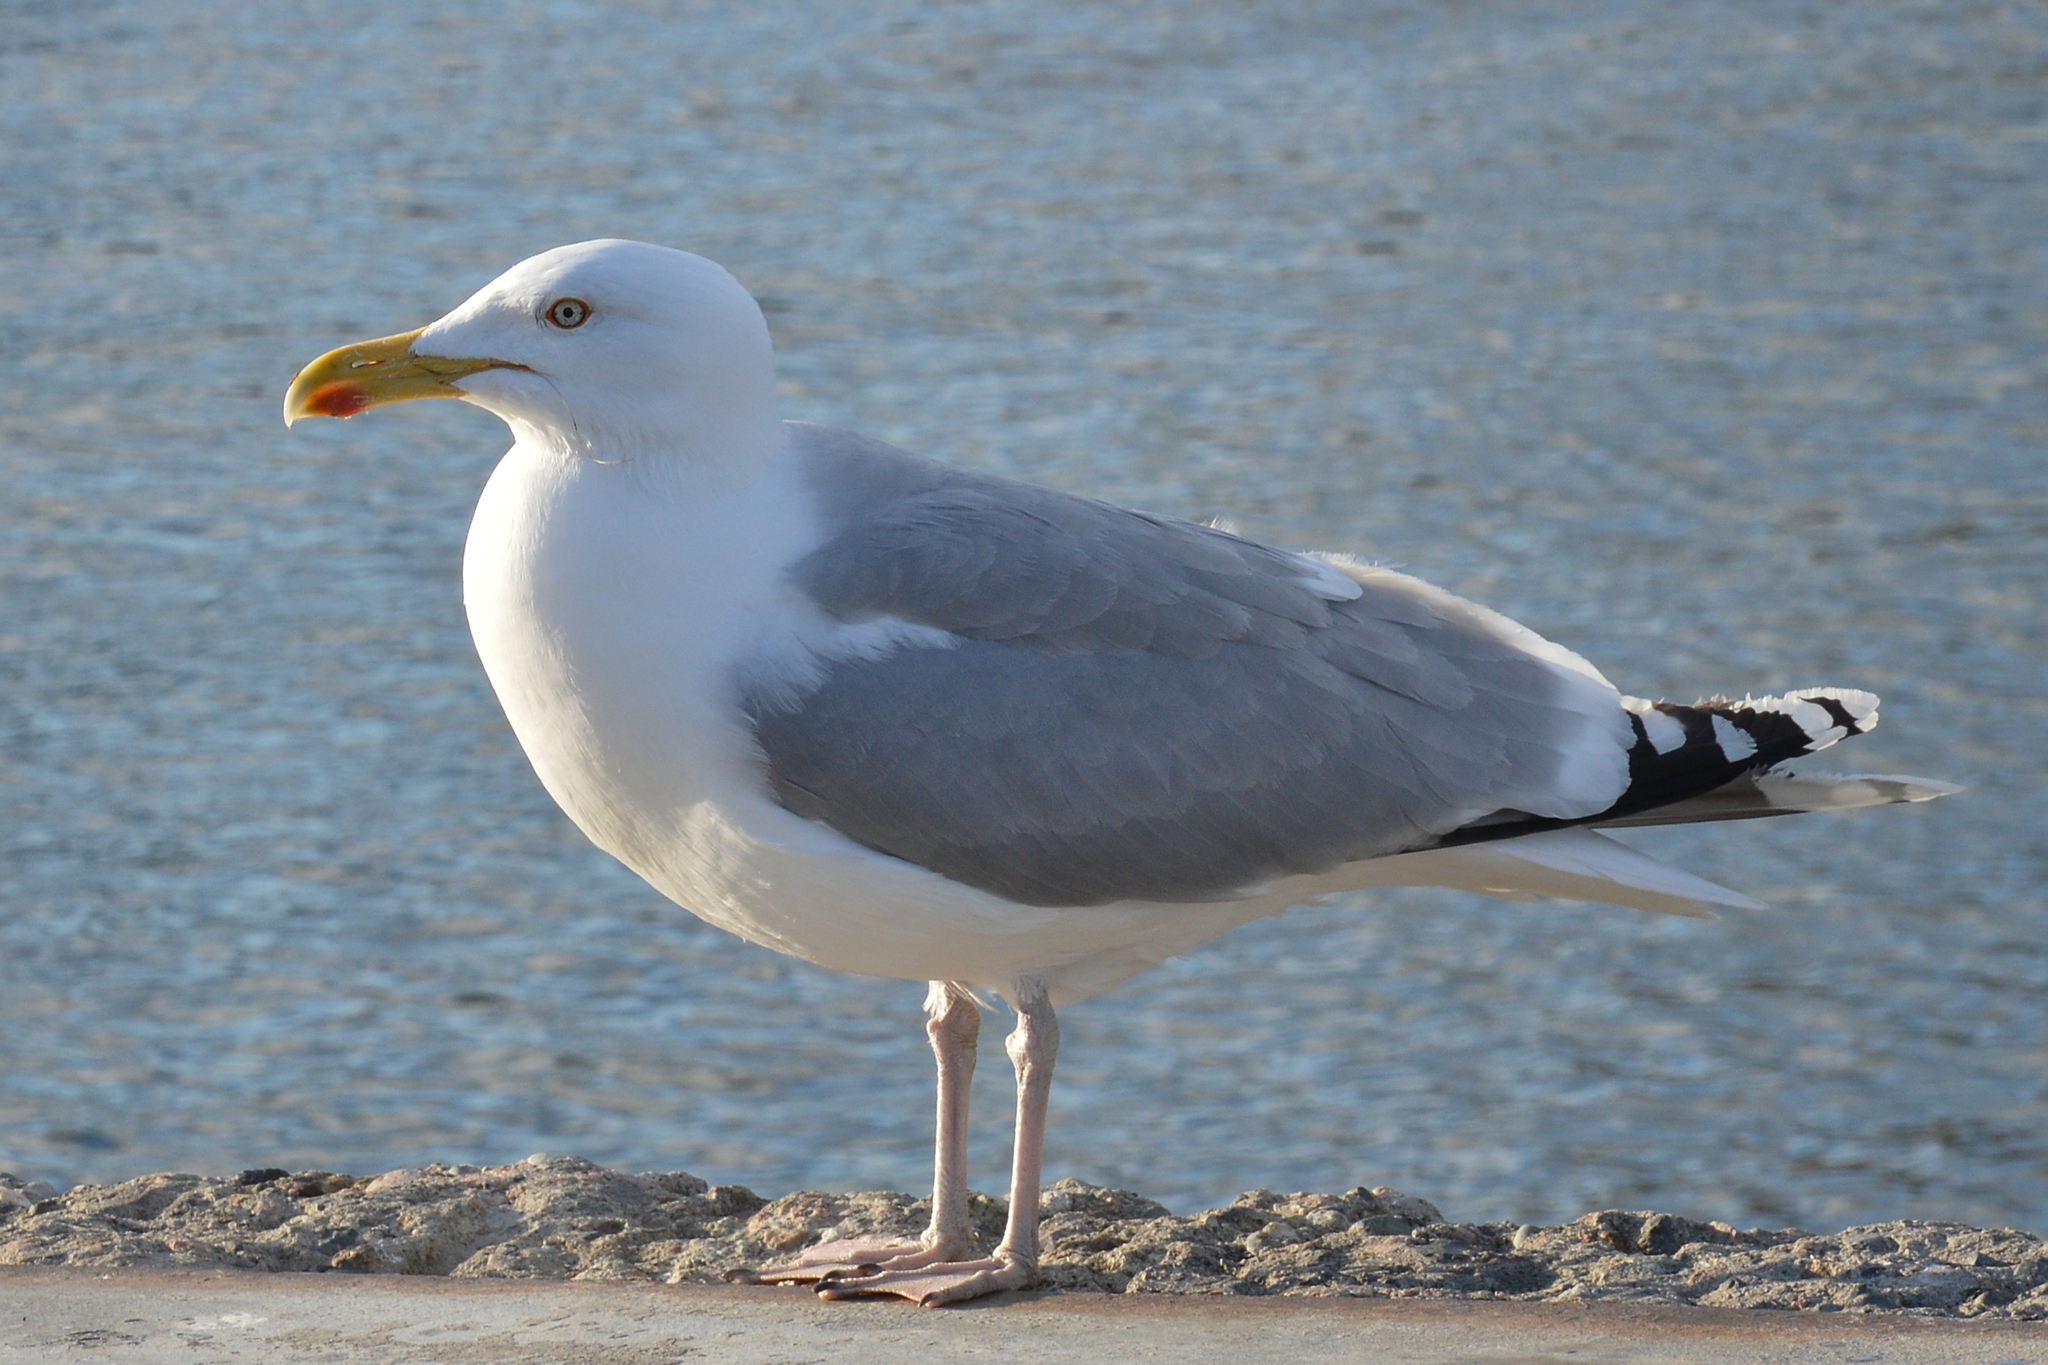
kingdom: Animalia
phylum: Chordata
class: Aves
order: Charadriiformes
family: Laridae
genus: Larus
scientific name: Larus argentatus
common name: Herring gull
